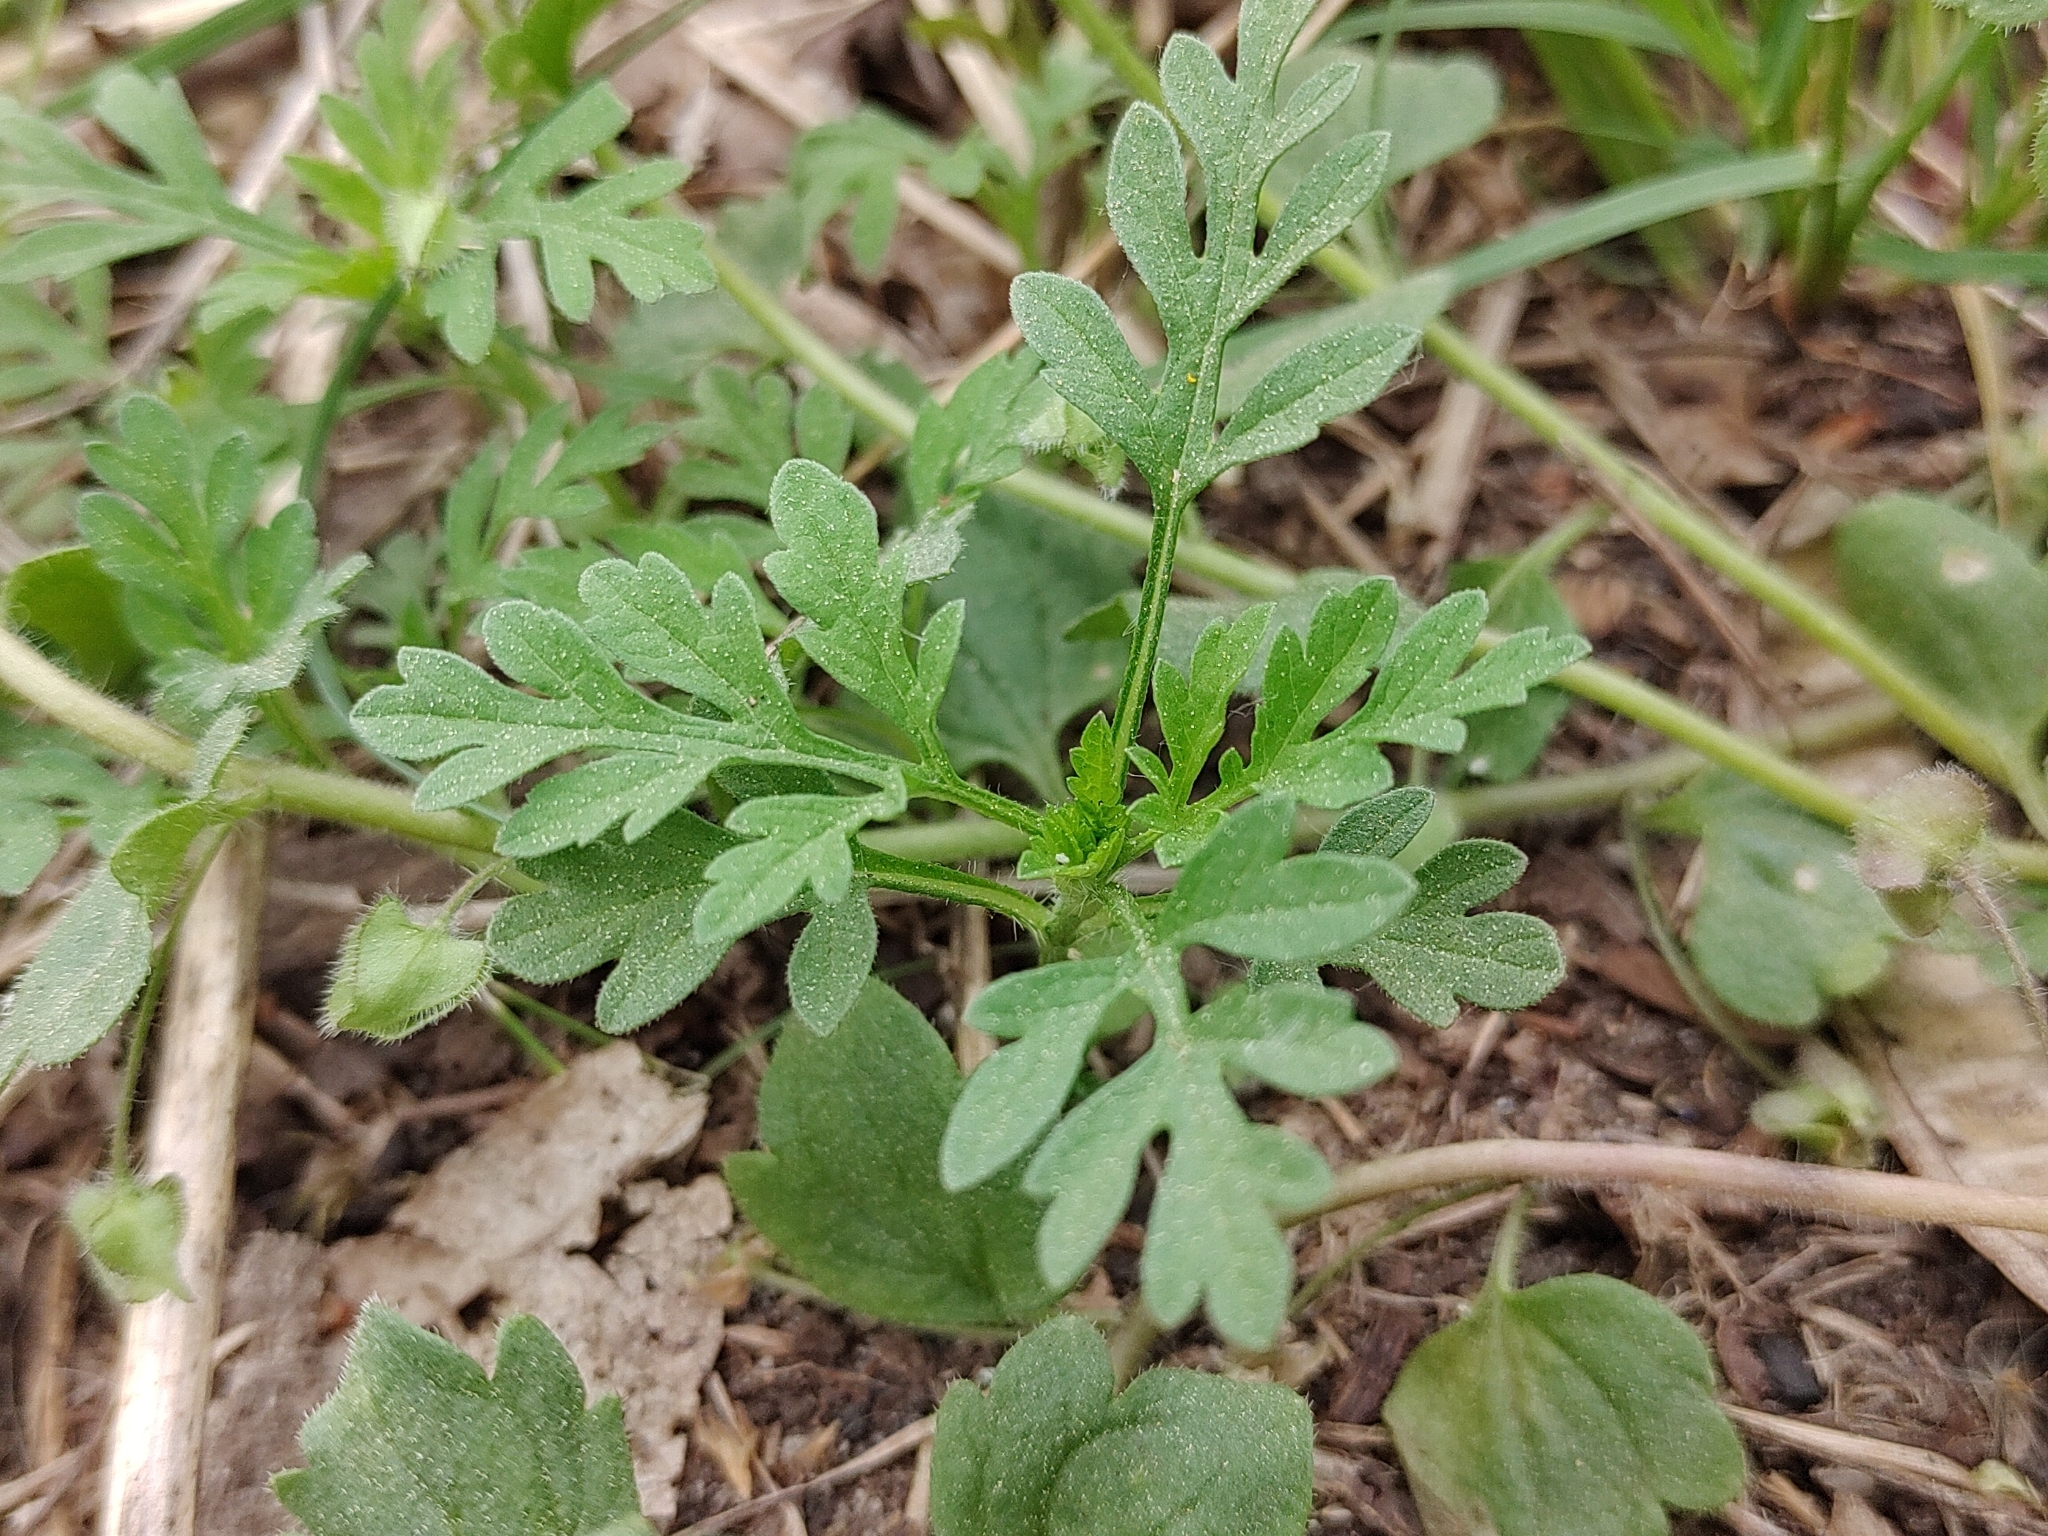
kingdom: Plantae
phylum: Tracheophyta
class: Magnoliopsida
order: Asterales
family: Asteraceae
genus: Ambrosia
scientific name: Ambrosia artemisiifolia
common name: Annual ragweed
